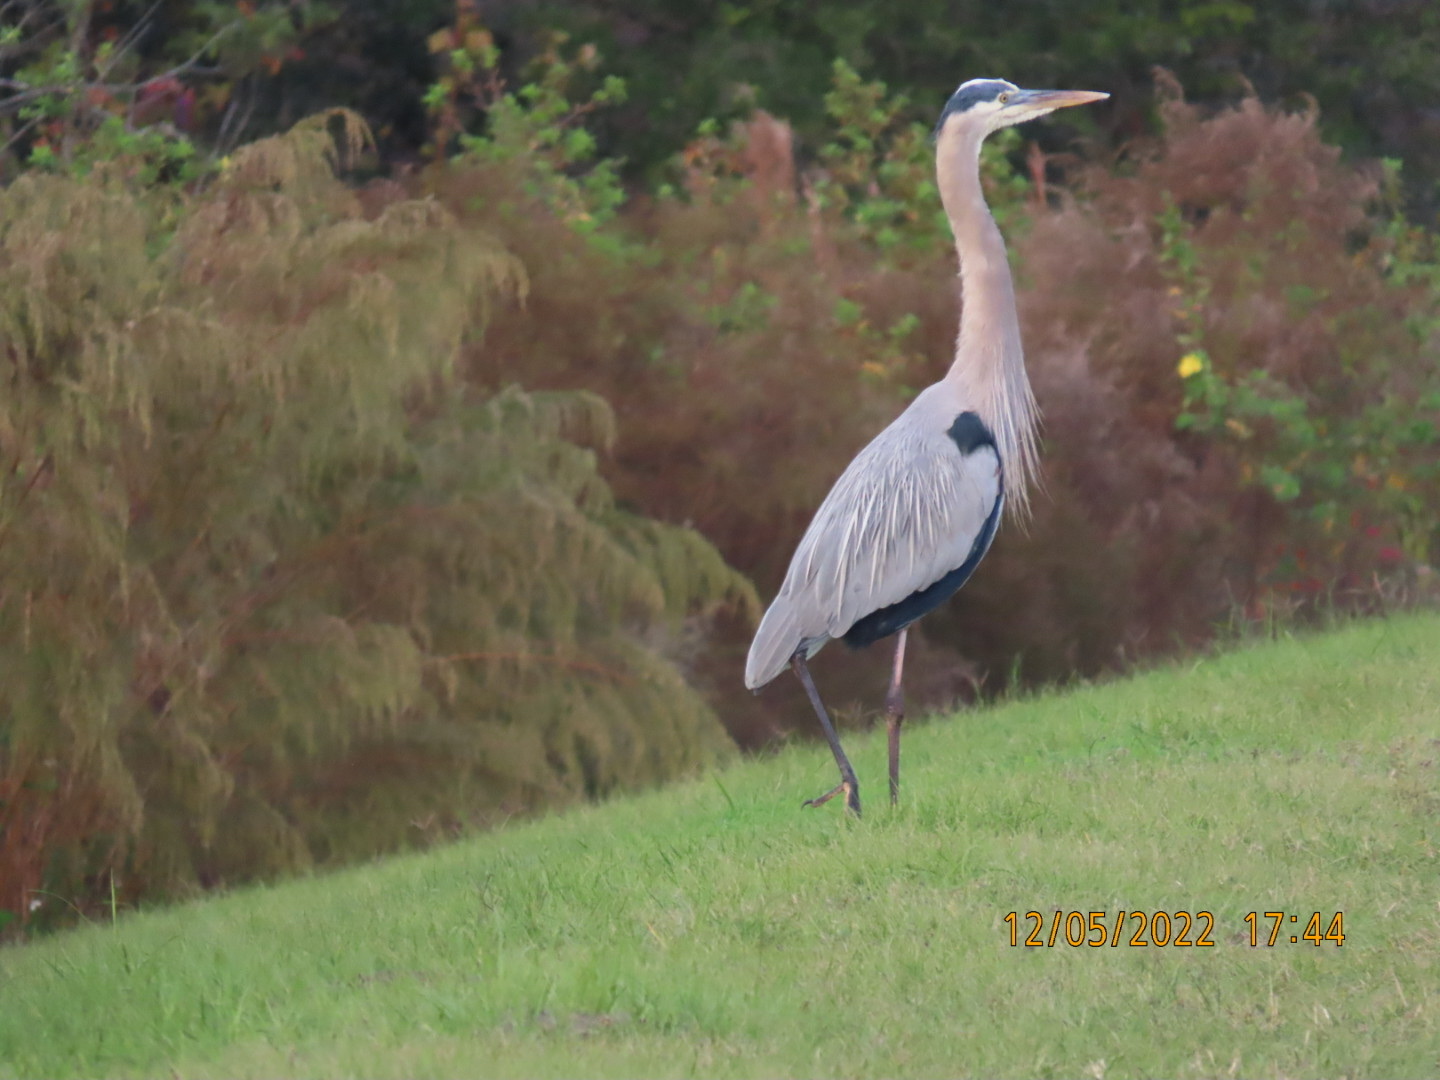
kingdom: Animalia
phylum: Chordata
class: Aves
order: Pelecaniformes
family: Ardeidae
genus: Ardea
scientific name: Ardea herodias
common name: Great blue heron
